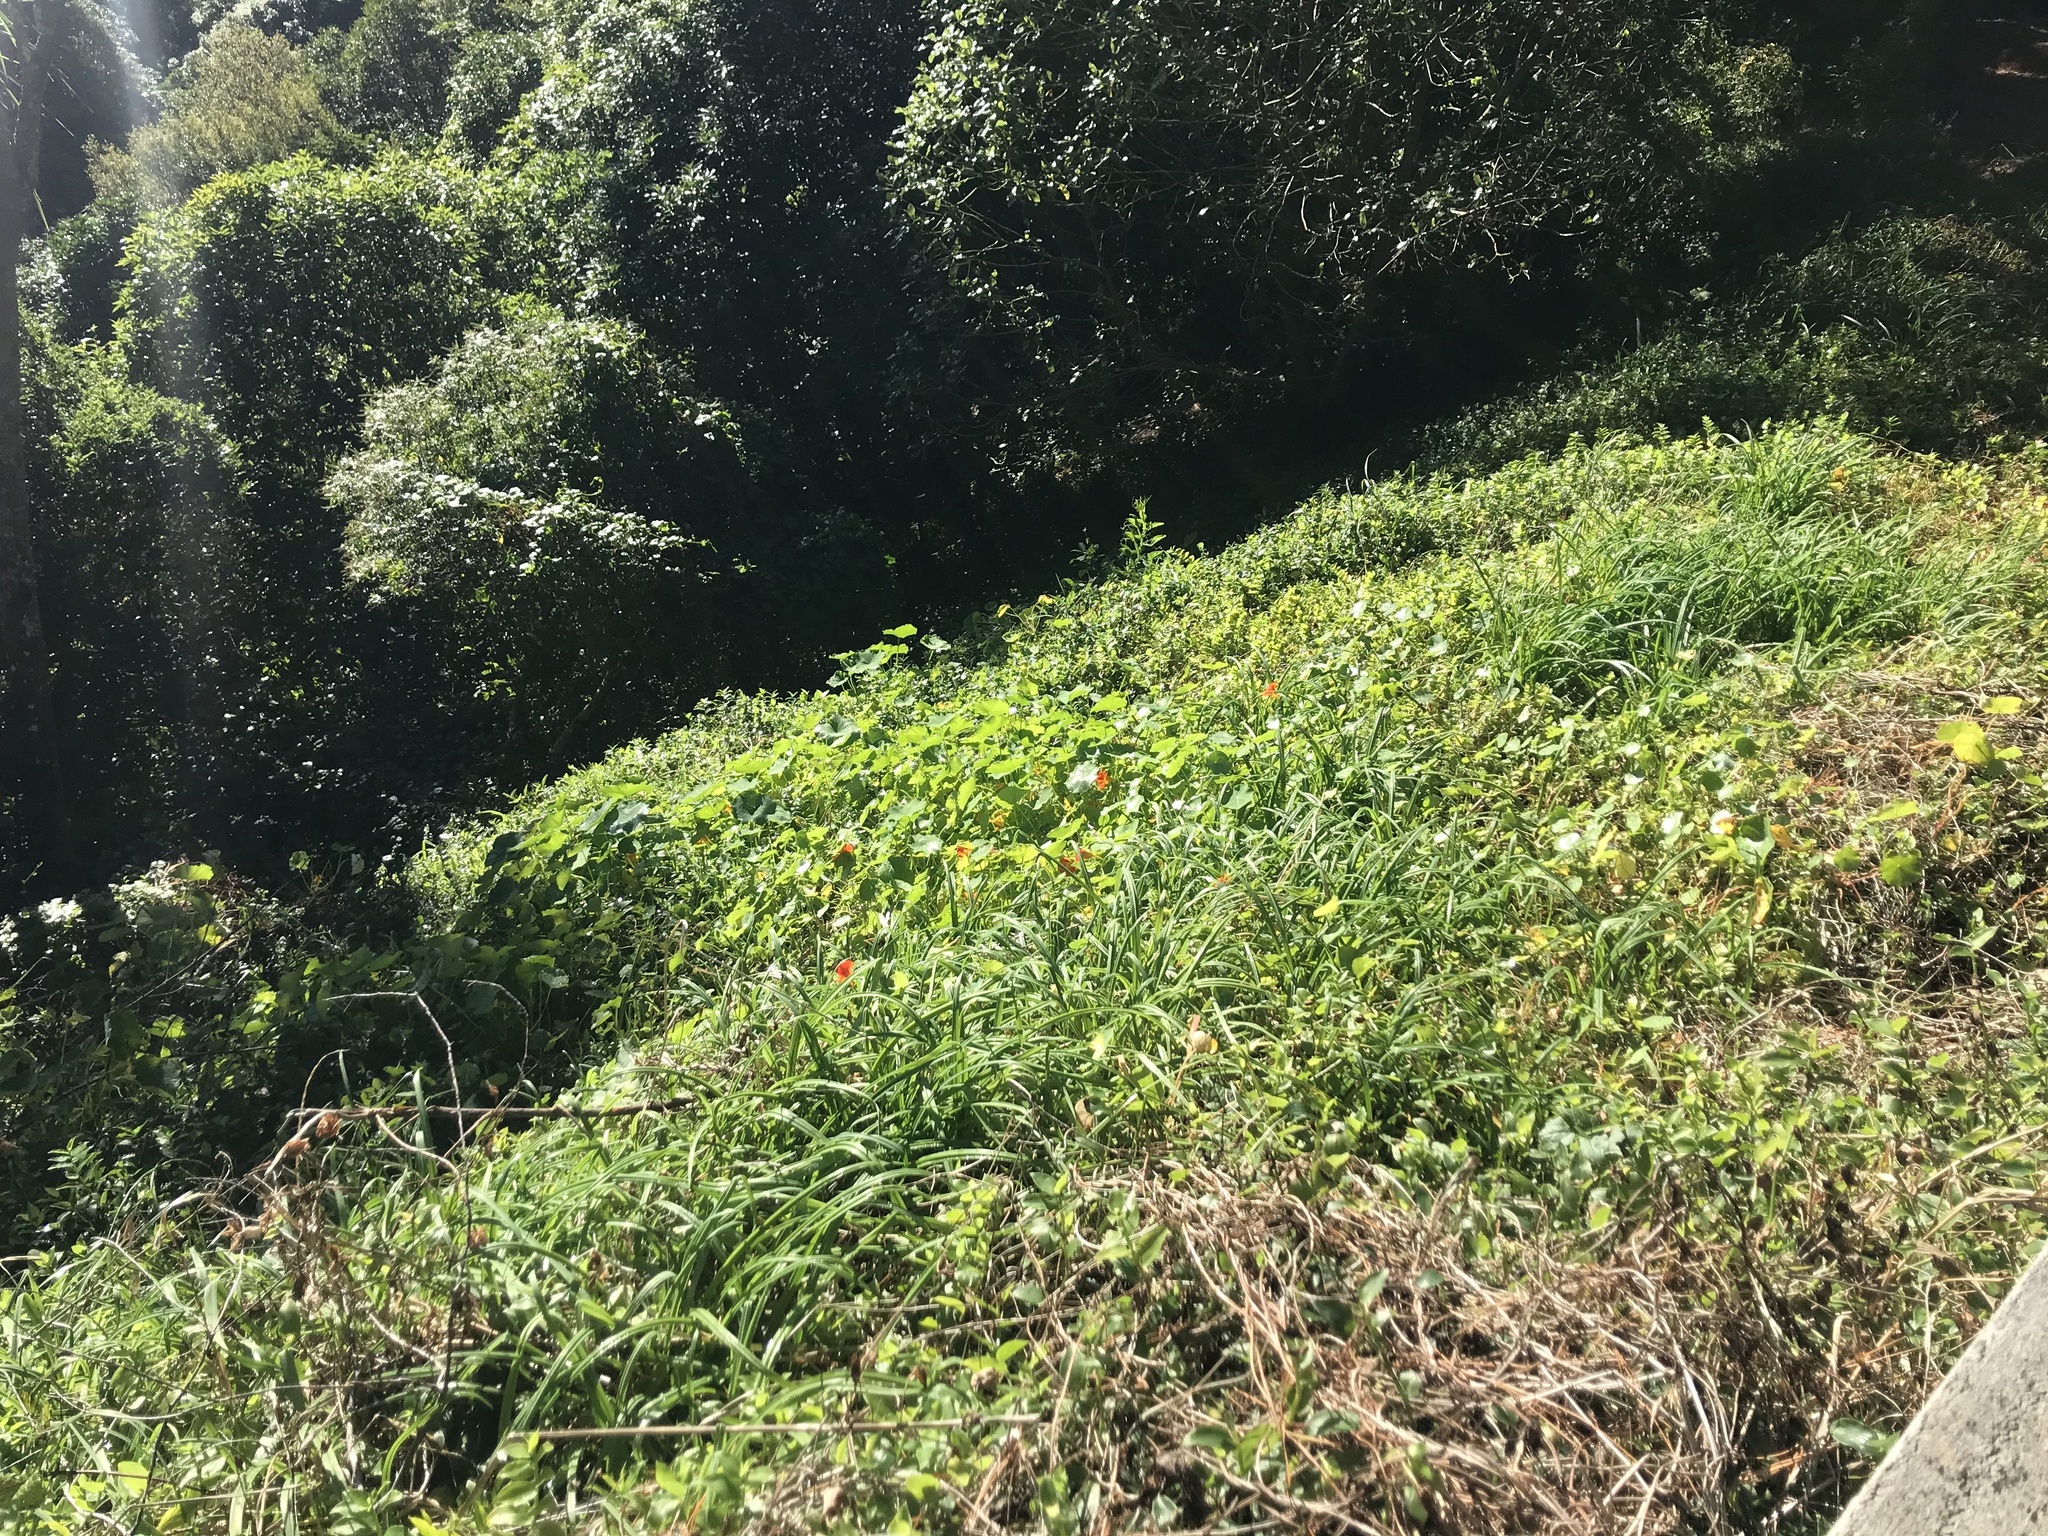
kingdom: Plantae
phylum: Tracheophyta
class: Magnoliopsida
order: Asterales
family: Asteraceae
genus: Delairea
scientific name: Delairea odorata
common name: Cape-ivy
